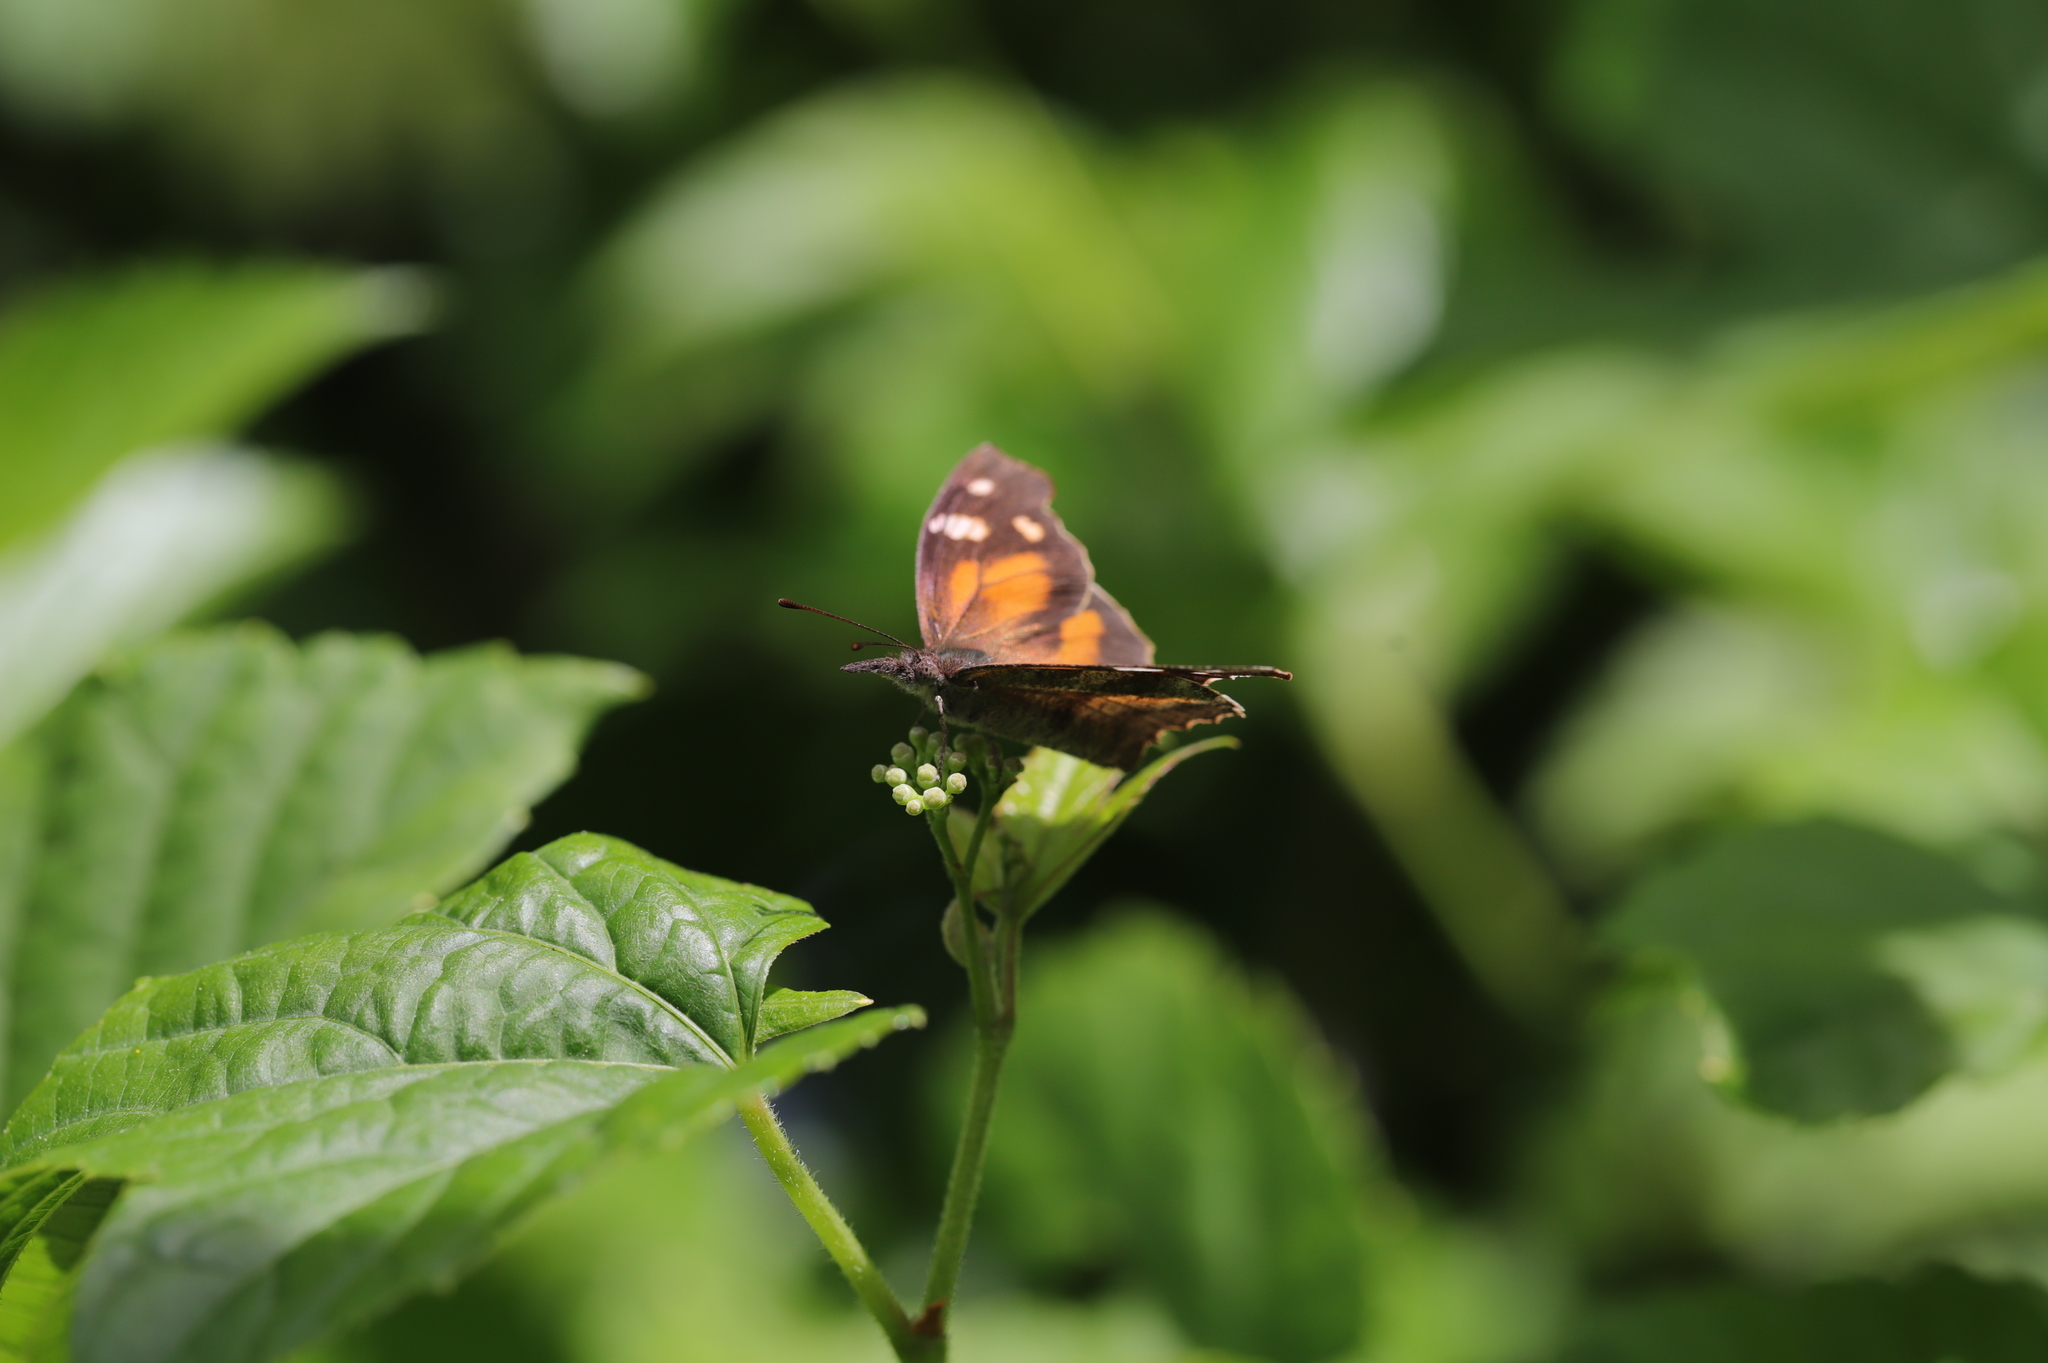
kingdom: Animalia
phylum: Arthropoda
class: Insecta
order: Lepidoptera
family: Nymphalidae
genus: Libytheana
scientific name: Libytheana carinenta
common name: American snout
